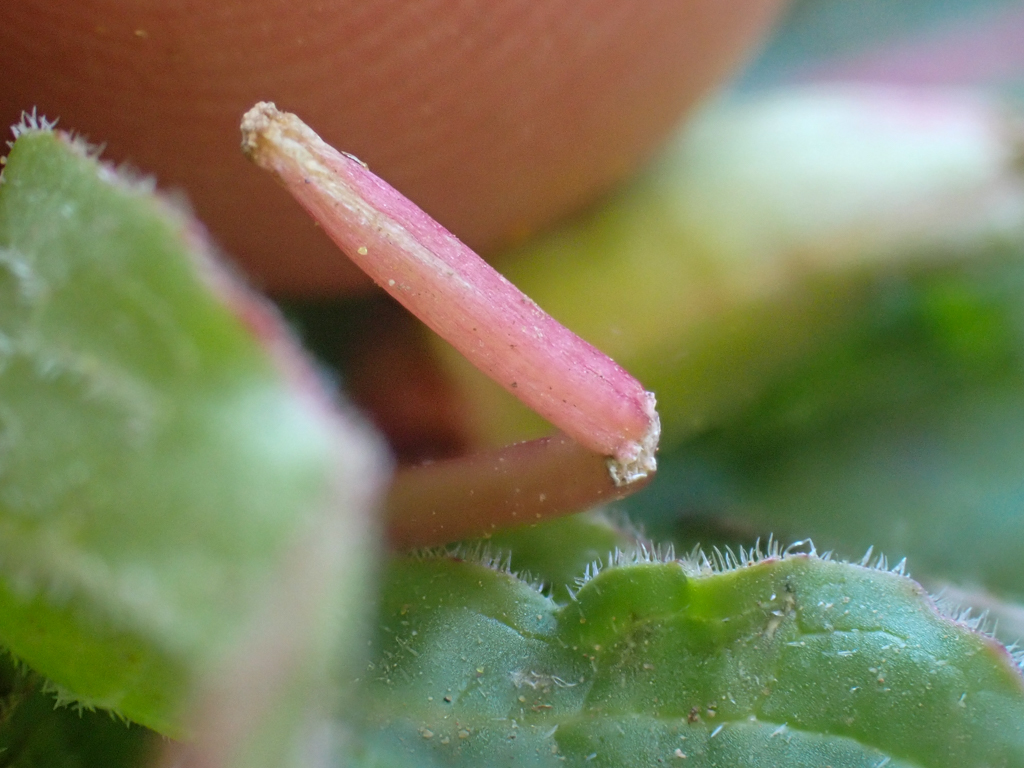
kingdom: Plantae
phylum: Tracheophyta
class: Magnoliopsida
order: Myrtales
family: Onagraceae
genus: Taraxia
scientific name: Taraxia ovata
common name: Goldeneggs
